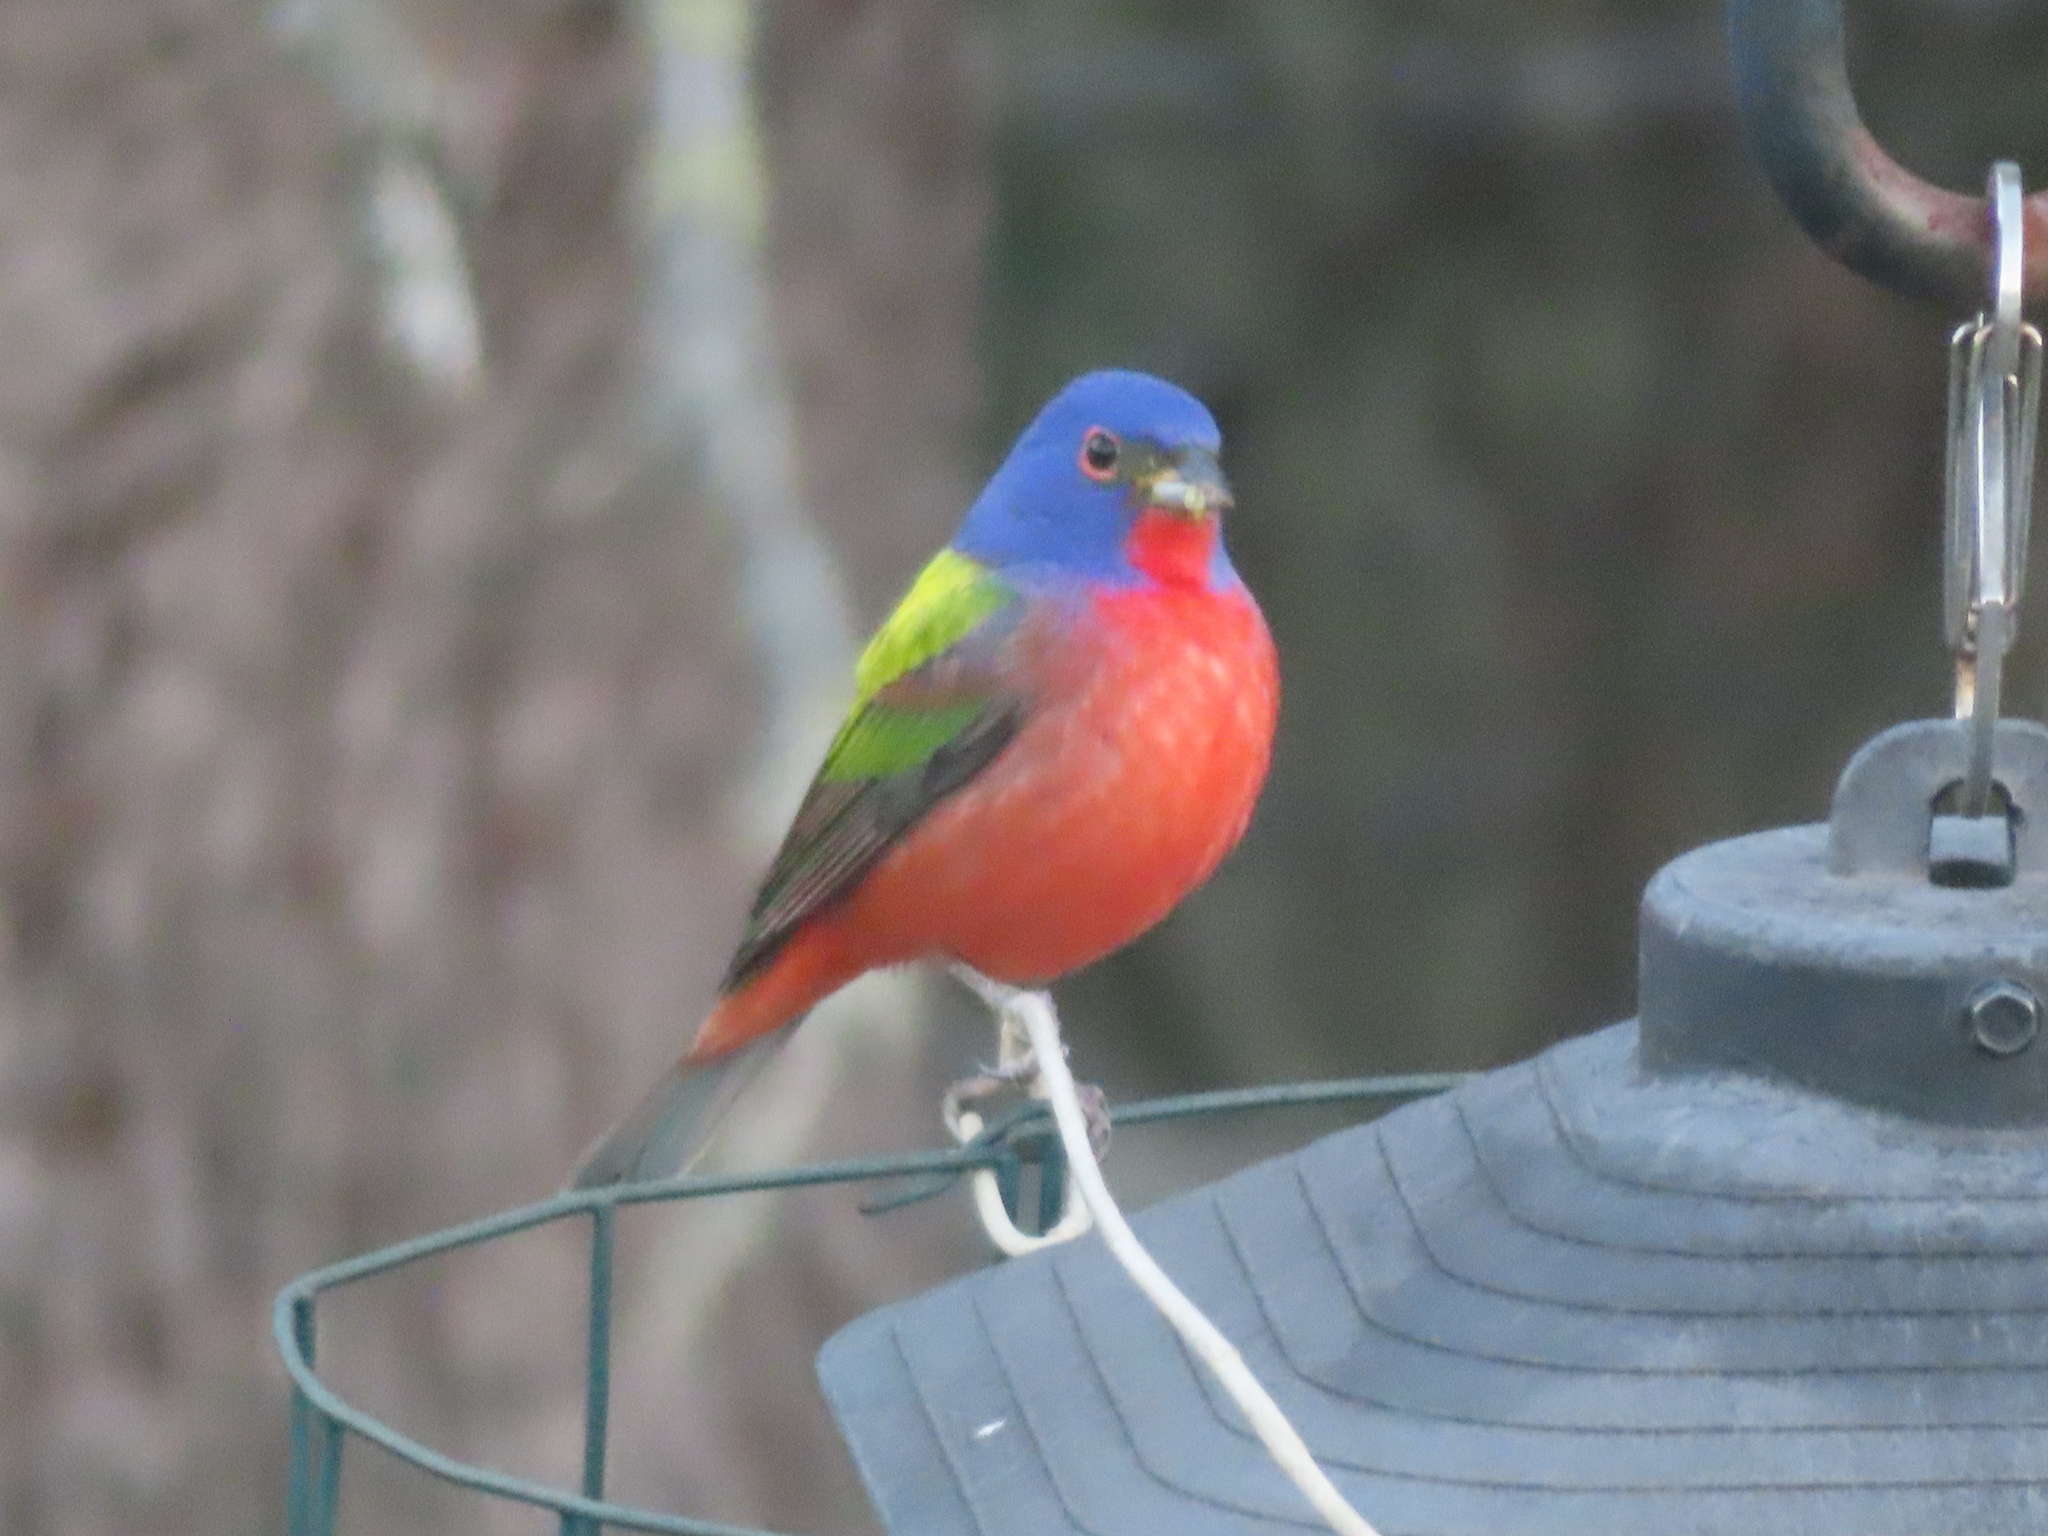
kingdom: Animalia
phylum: Chordata
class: Aves
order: Passeriformes
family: Cardinalidae
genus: Passerina
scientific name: Passerina ciris
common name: Painted bunting
